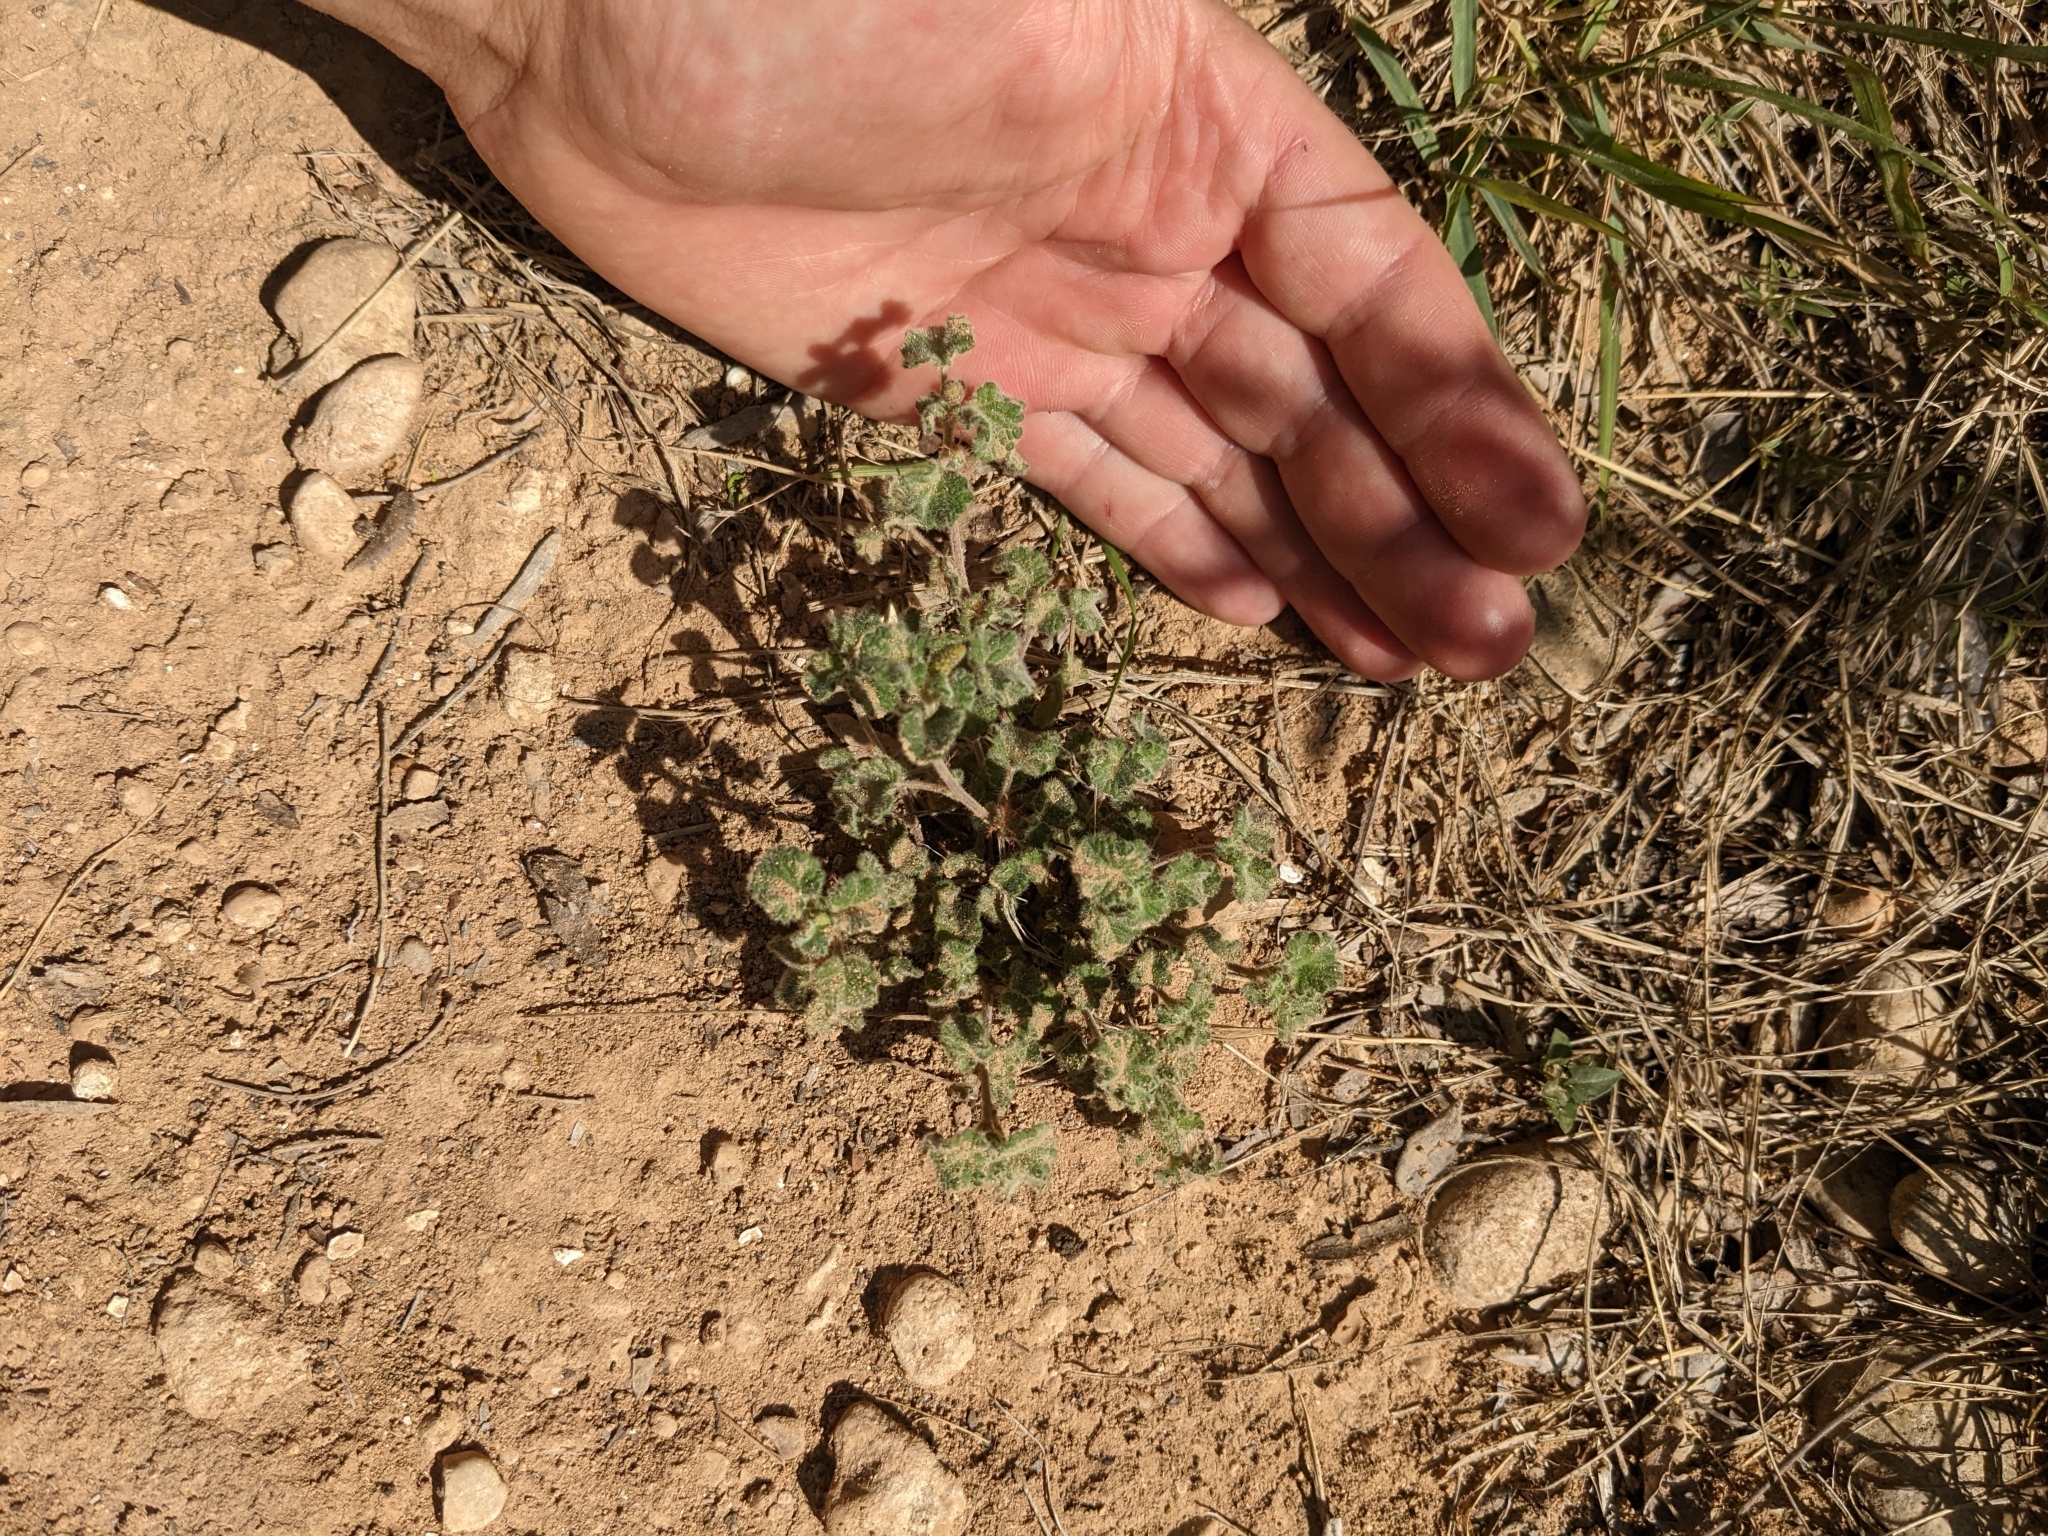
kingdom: Plantae
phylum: Tracheophyta
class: Magnoliopsida
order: Malpighiales
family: Euphorbiaceae
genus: Acalypha
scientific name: Acalypha monostachya
